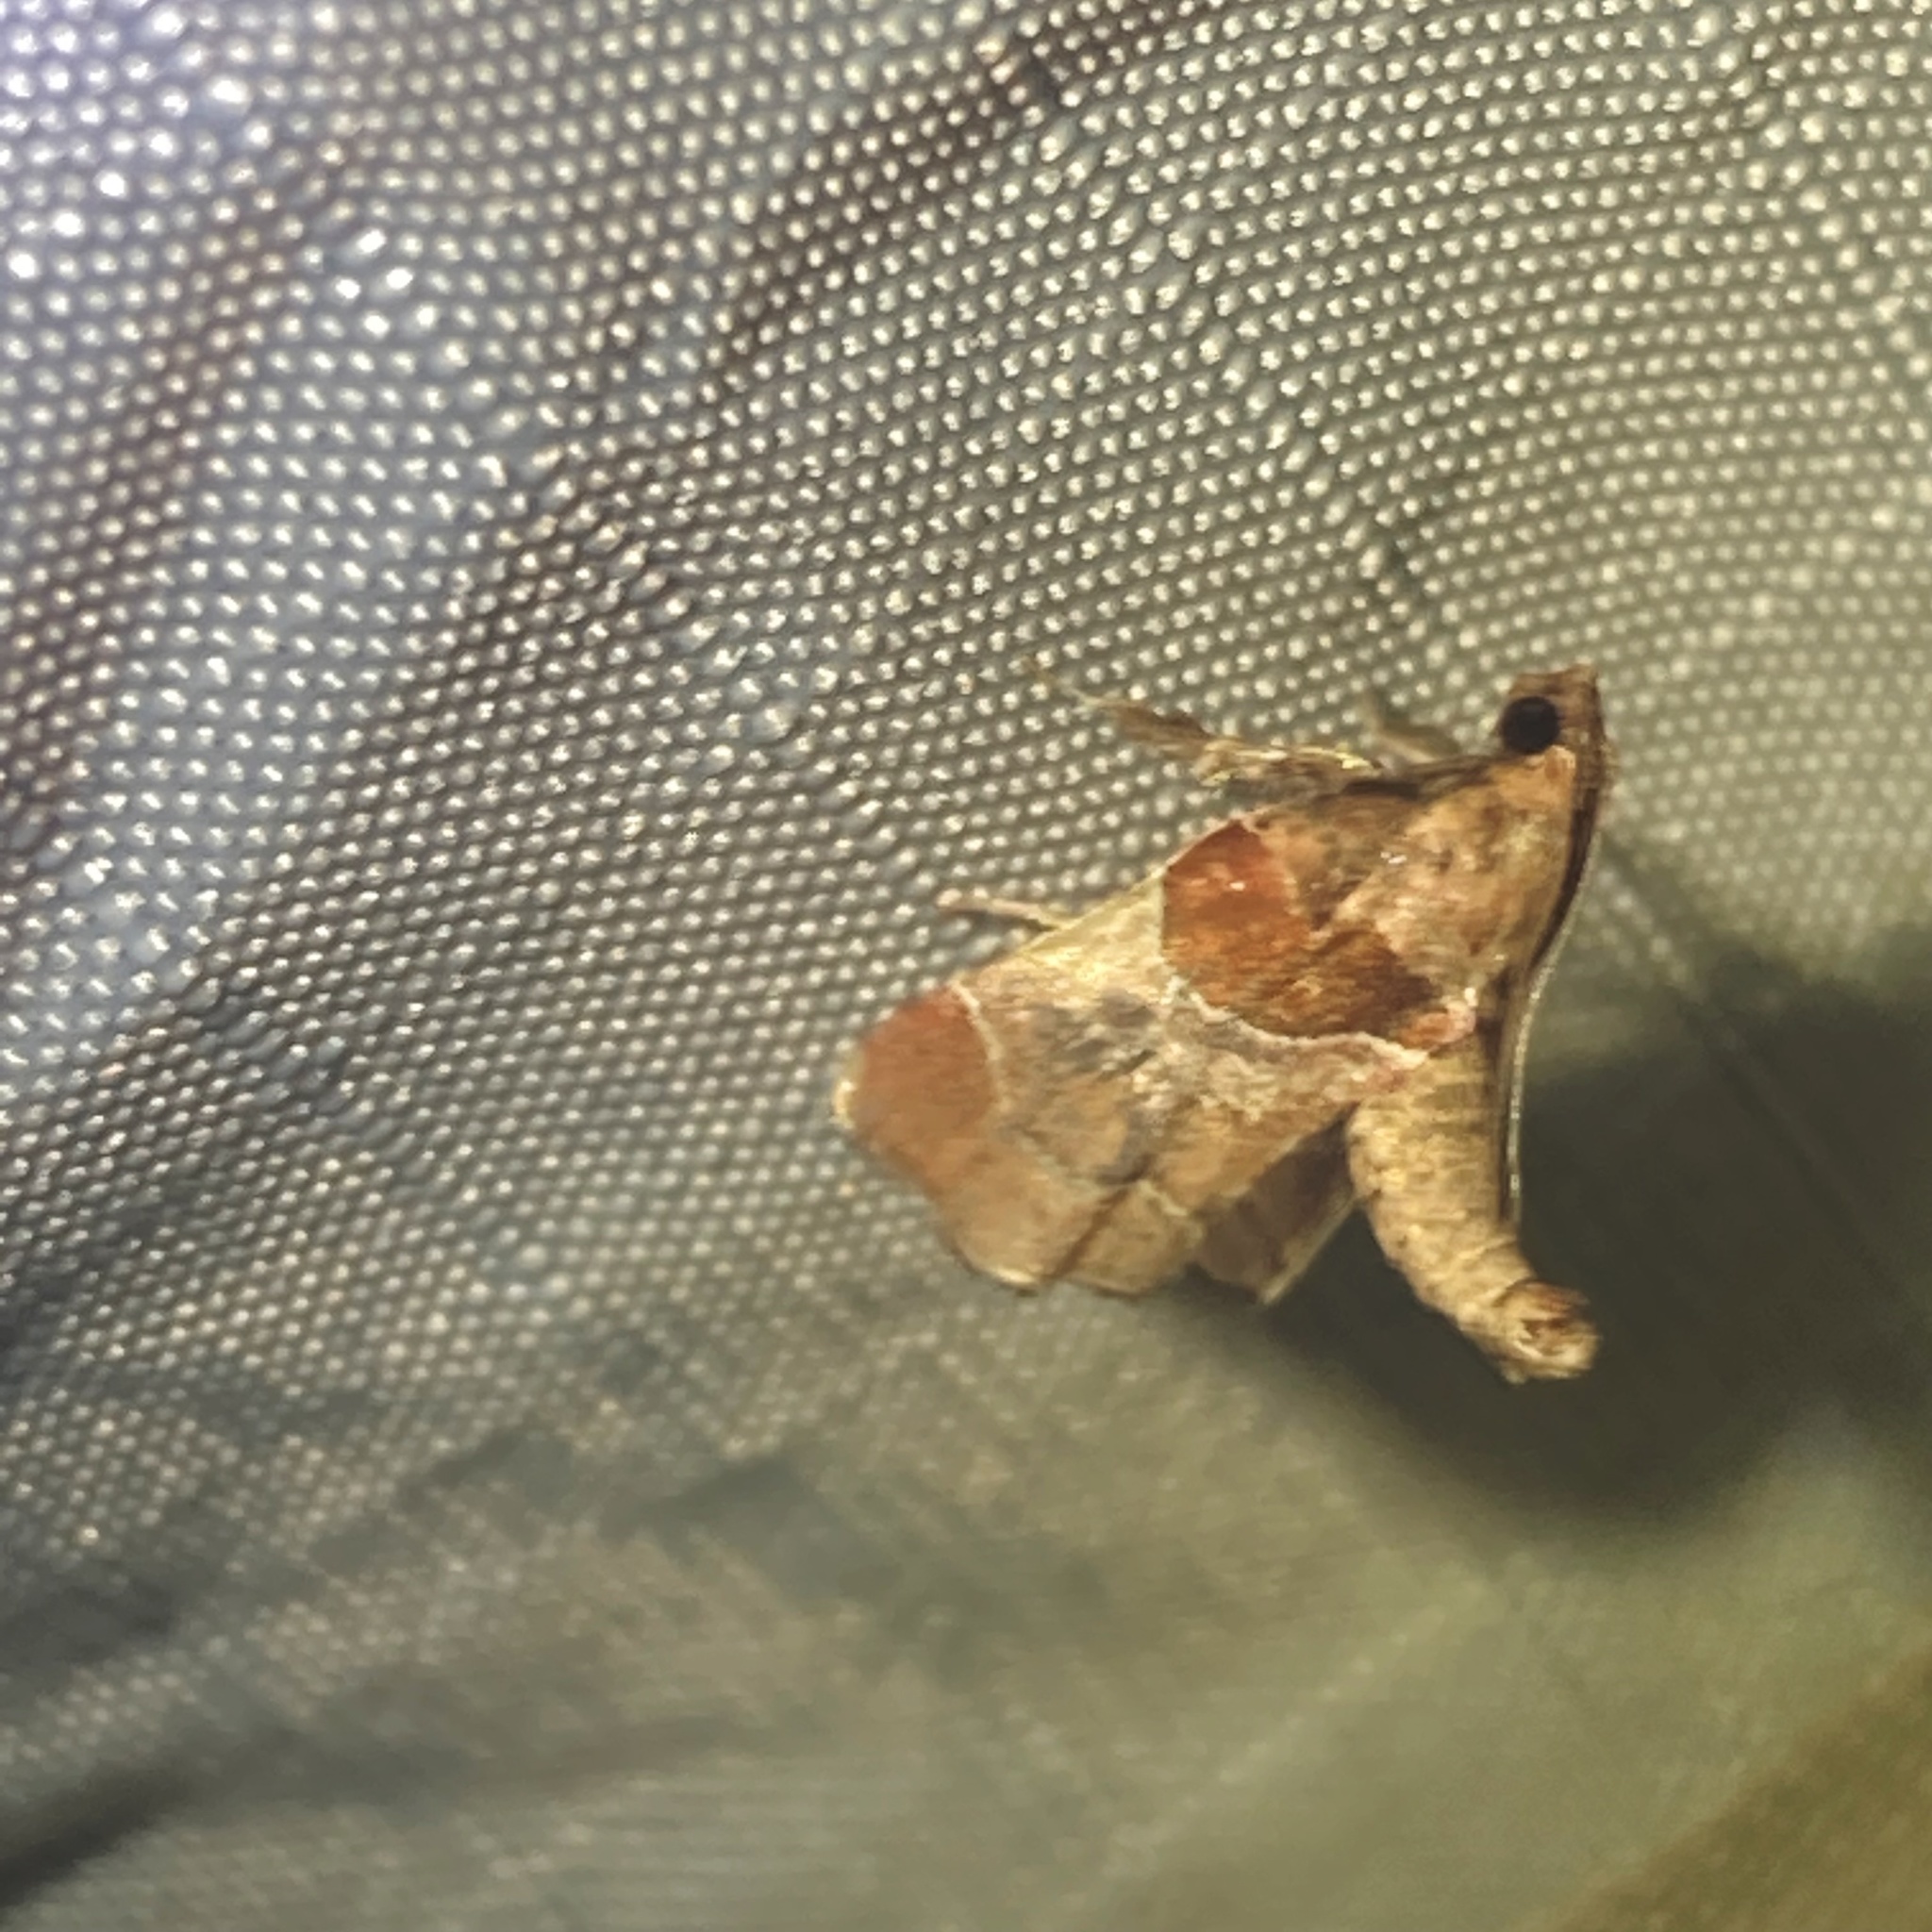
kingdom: Animalia
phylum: Arthropoda
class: Insecta
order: Lepidoptera
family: Pyralidae
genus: Tosale
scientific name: Tosale oviplagalis
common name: Dimorphic tosale moth
